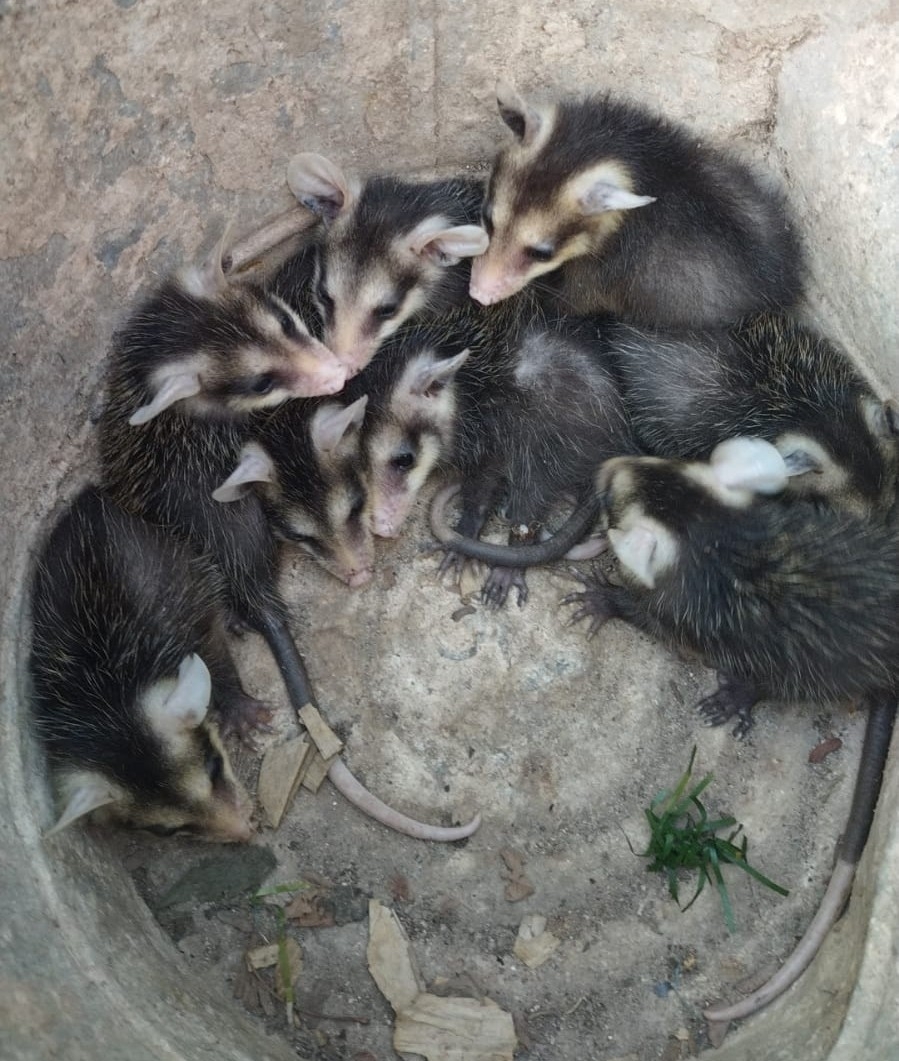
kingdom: Animalia
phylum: Chordata
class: Mammalia
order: Didelphimorphia
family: Didelphidae
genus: Didelphis
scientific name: Didelphis
